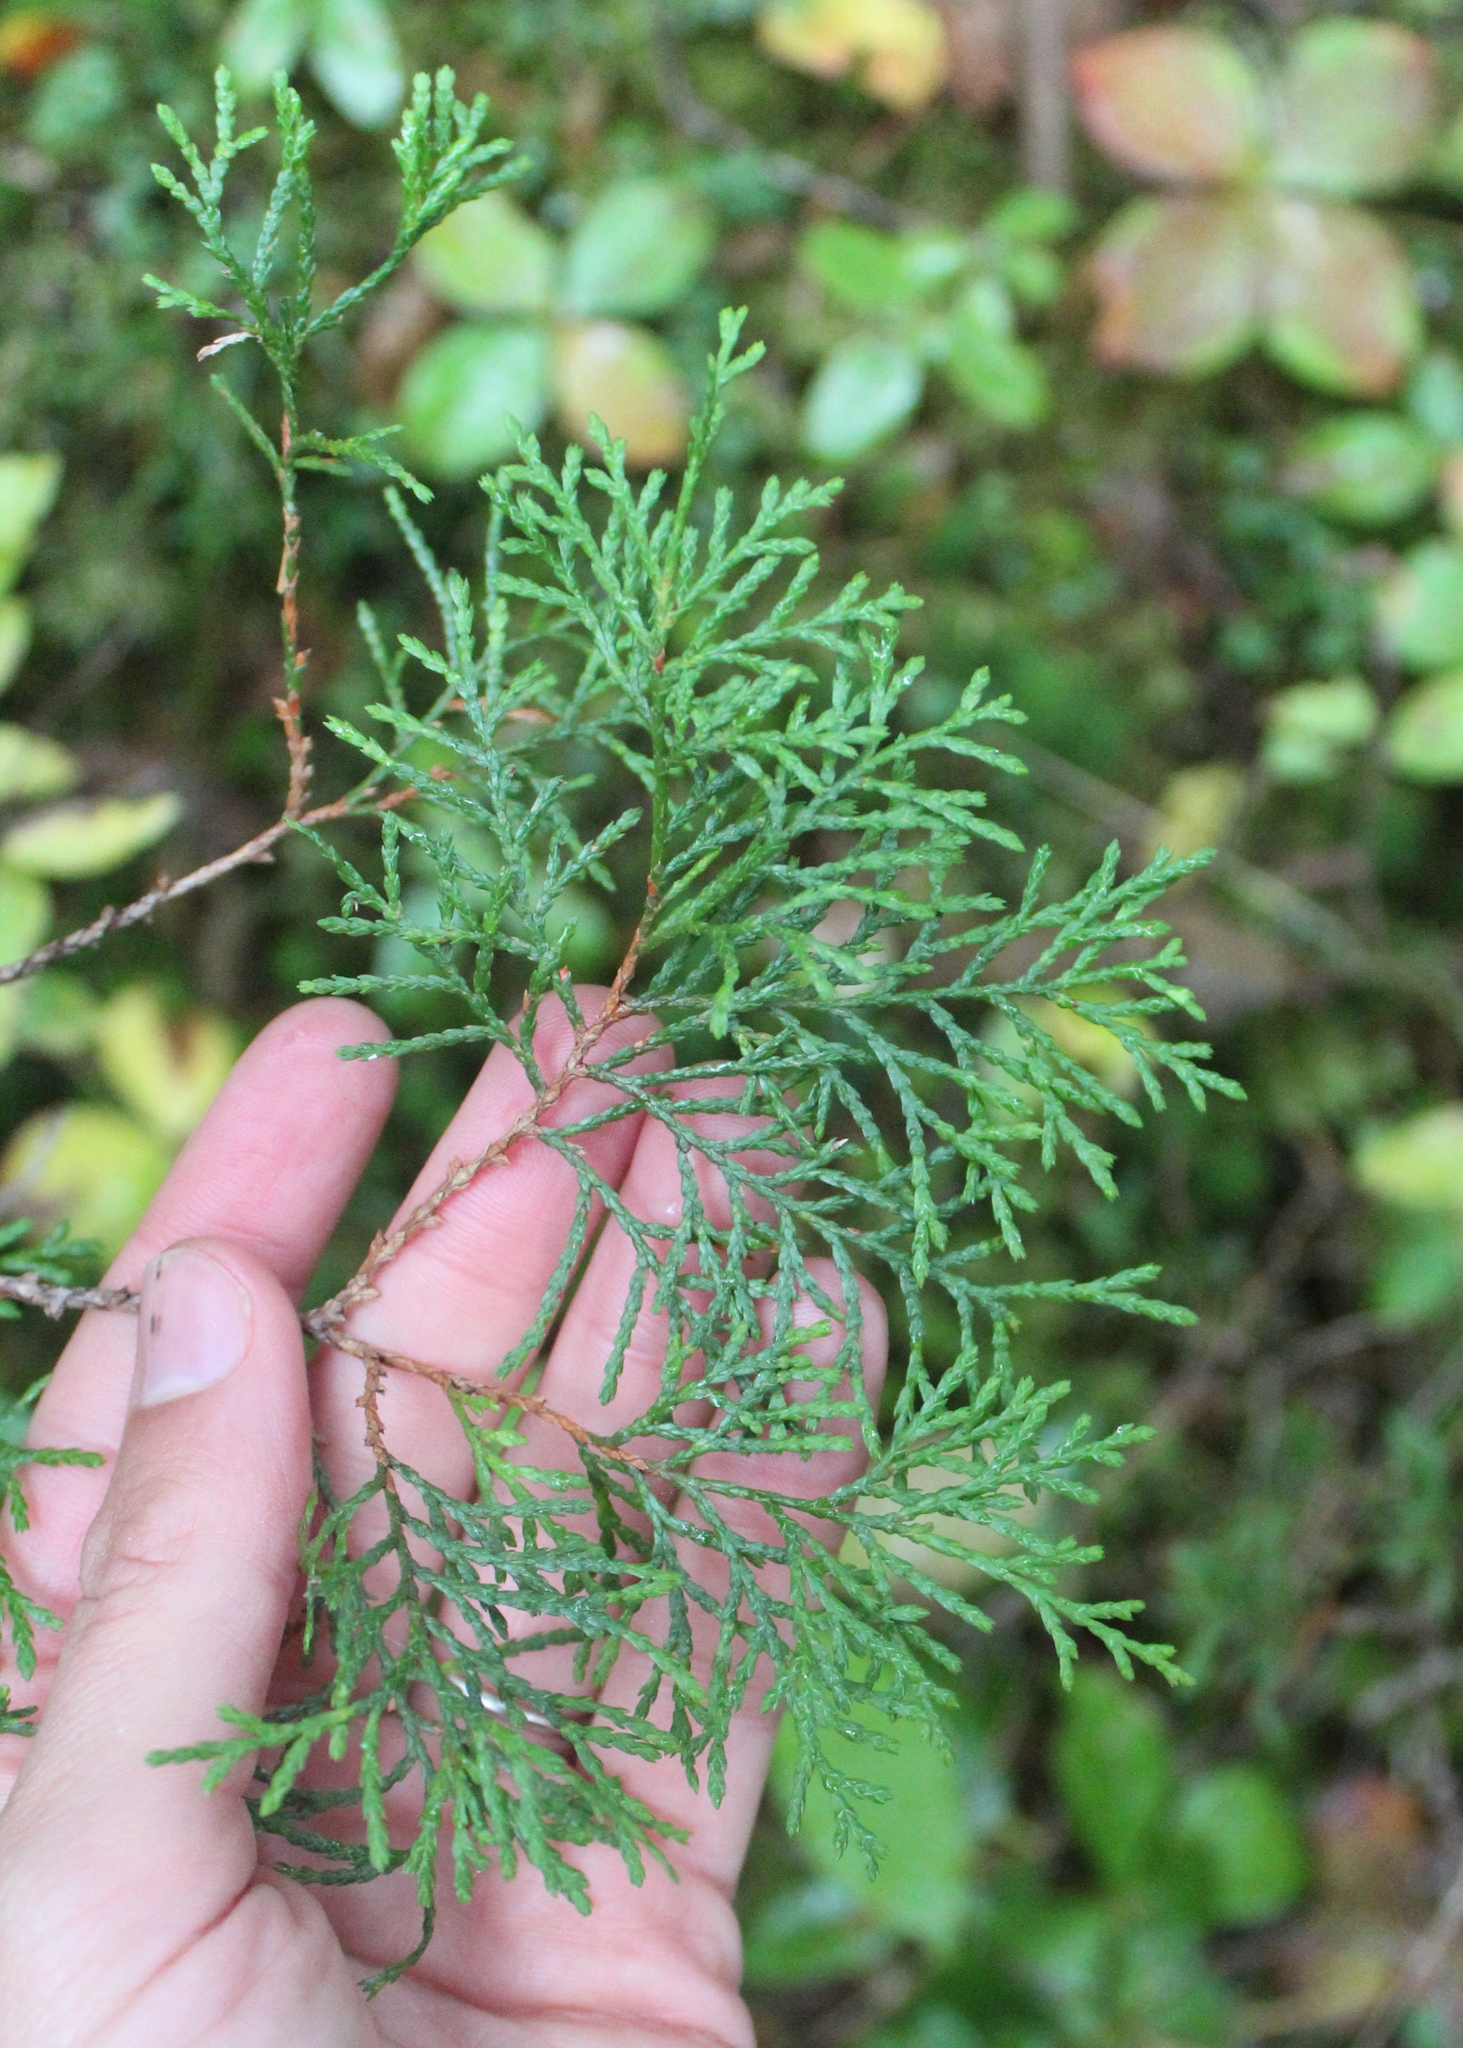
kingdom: Plantae
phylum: Tracheophyta
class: Pinopsida
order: Pinales
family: Cupressaceae
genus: Chamaecyparis
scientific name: Chamaecyparis thyoides
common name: Atlantic white cedar
